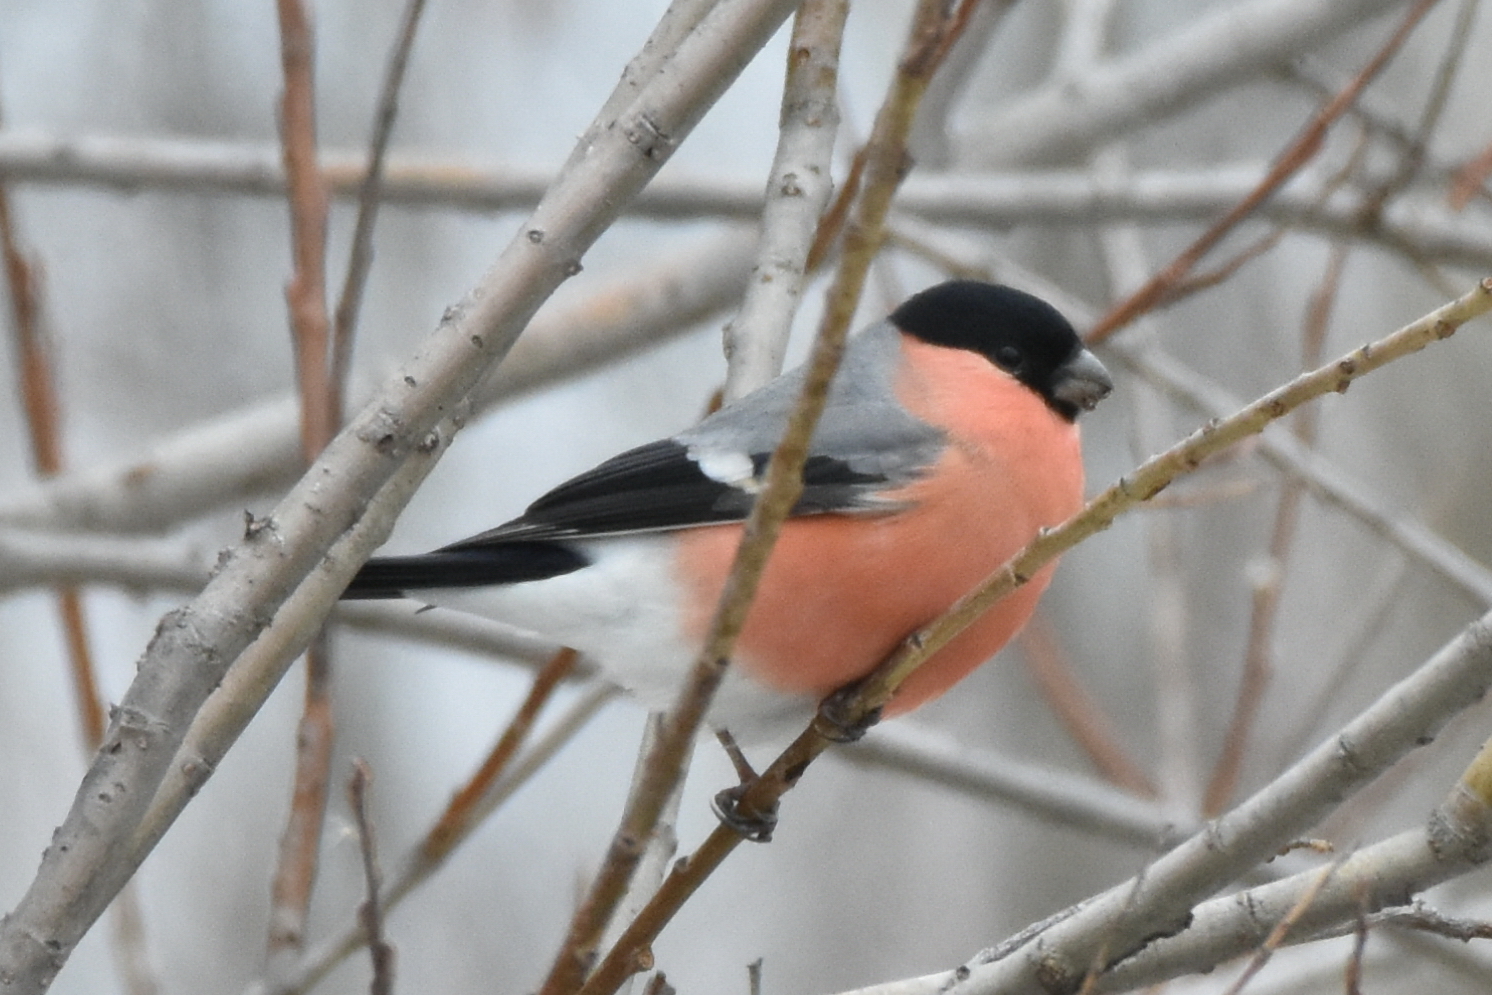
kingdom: Animalia
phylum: Chordata
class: Aves
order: Passeriformes
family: Fringillidae
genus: Pyrrhula
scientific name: Pyrrhula pyrrhula
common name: Eurasian bullfinch
